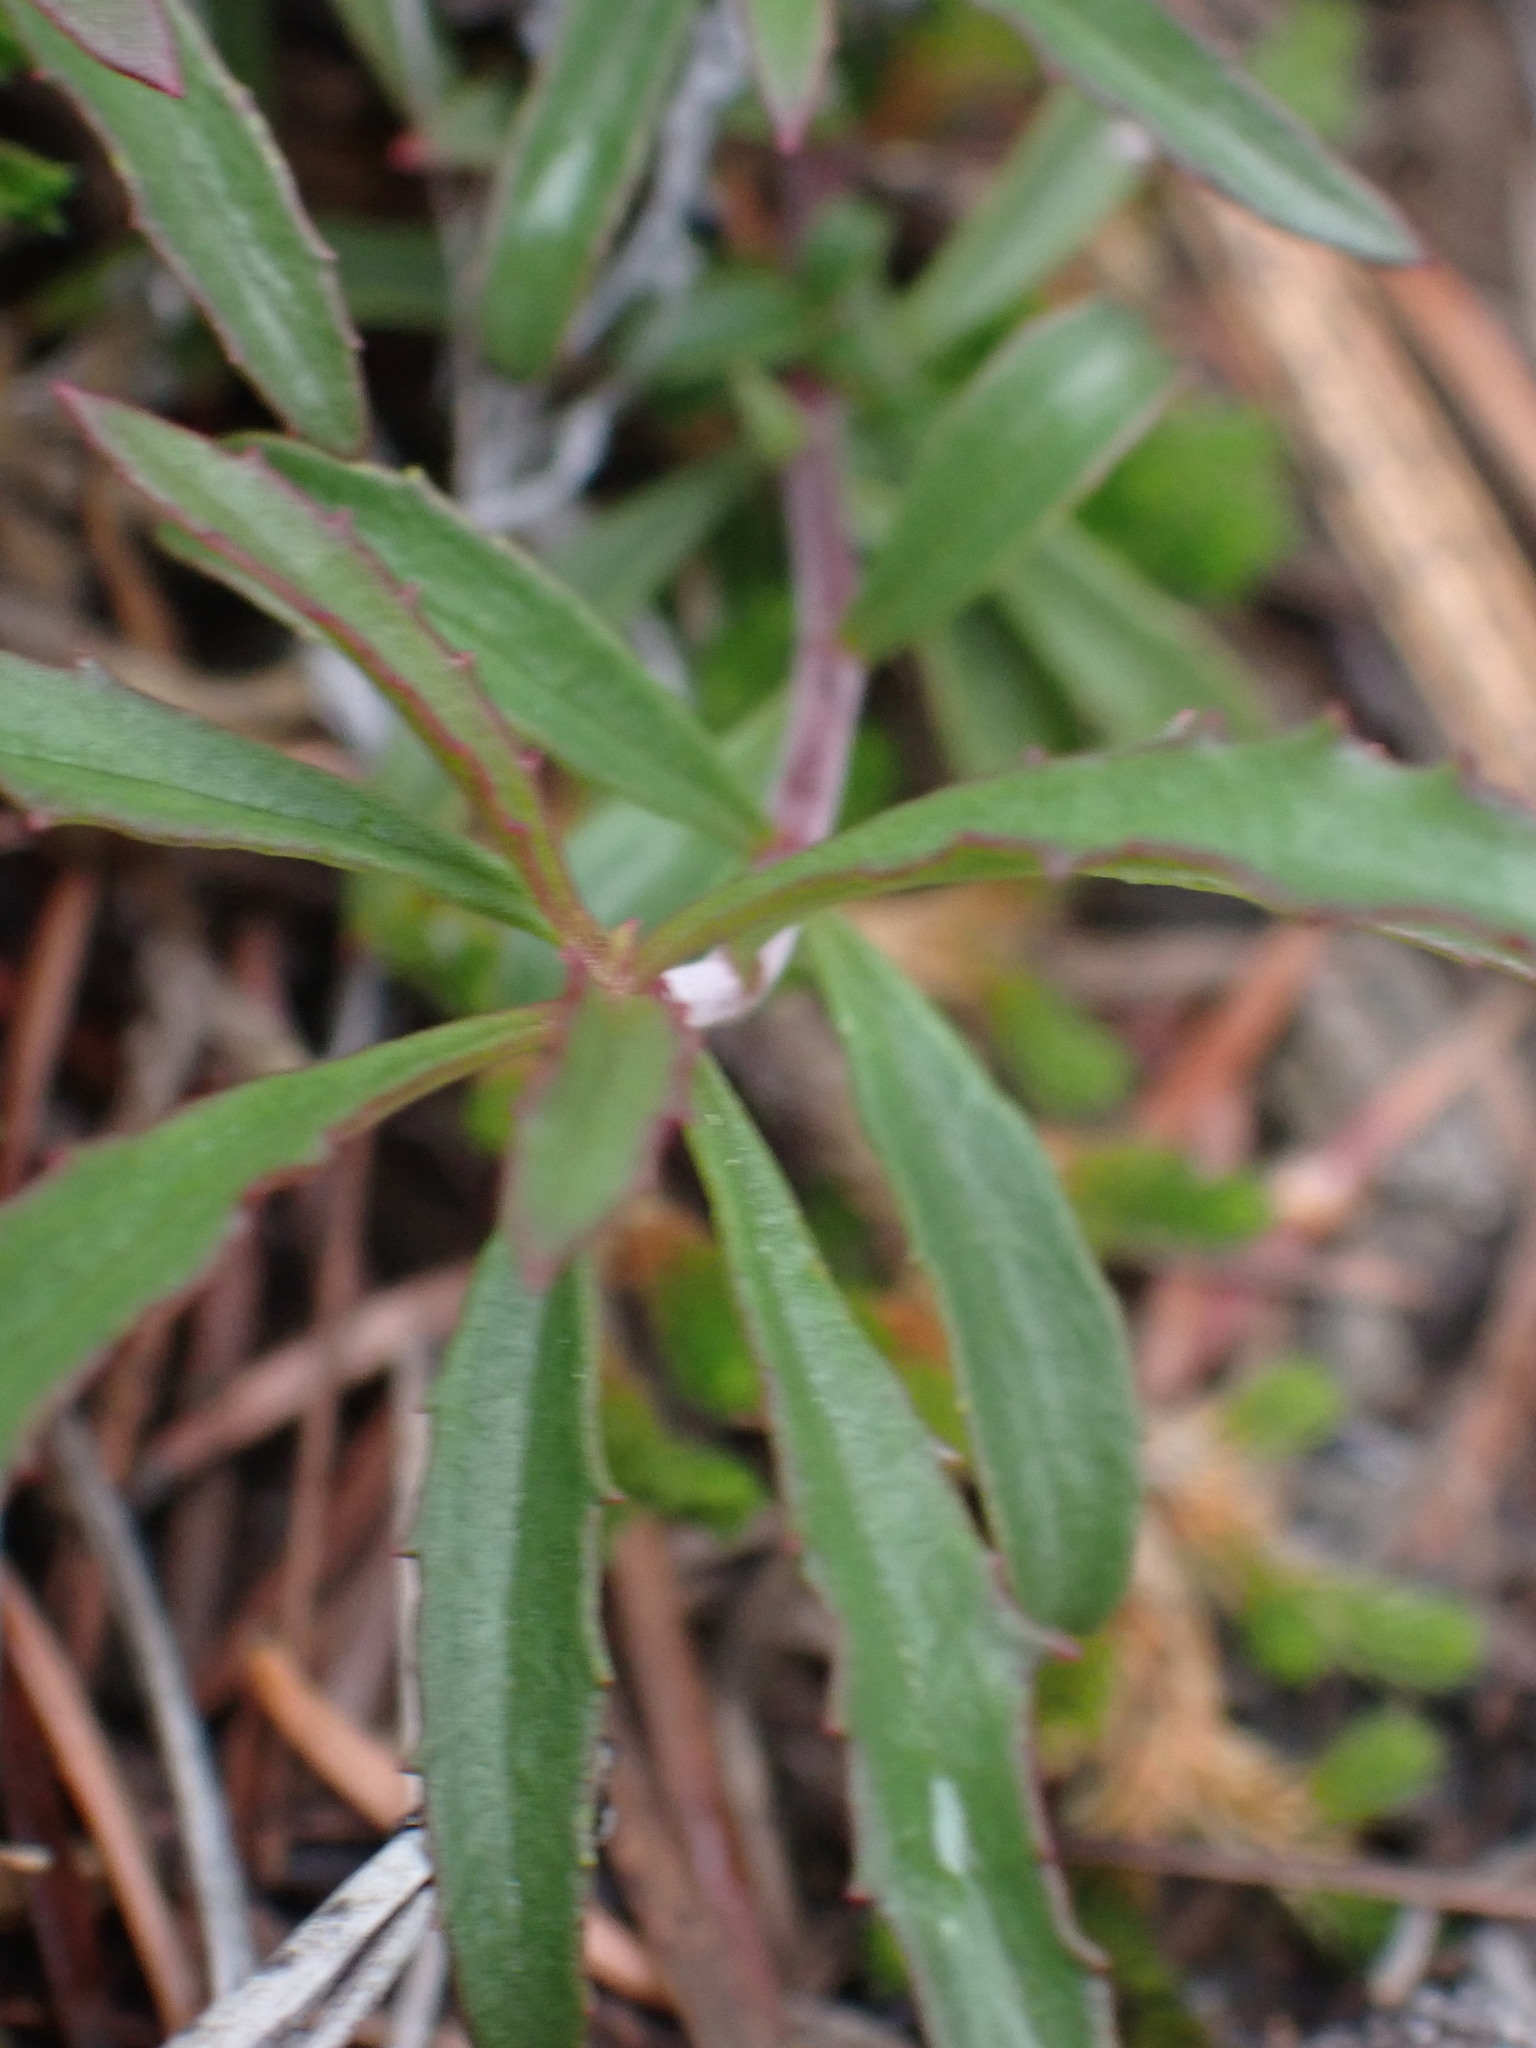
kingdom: Plantae
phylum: Tracheophyta
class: Magnoliopsida
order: Lamiales
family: Plantaginaceae
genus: Penstemon
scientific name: Penstemon fruticosus
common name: Bush penstemon
